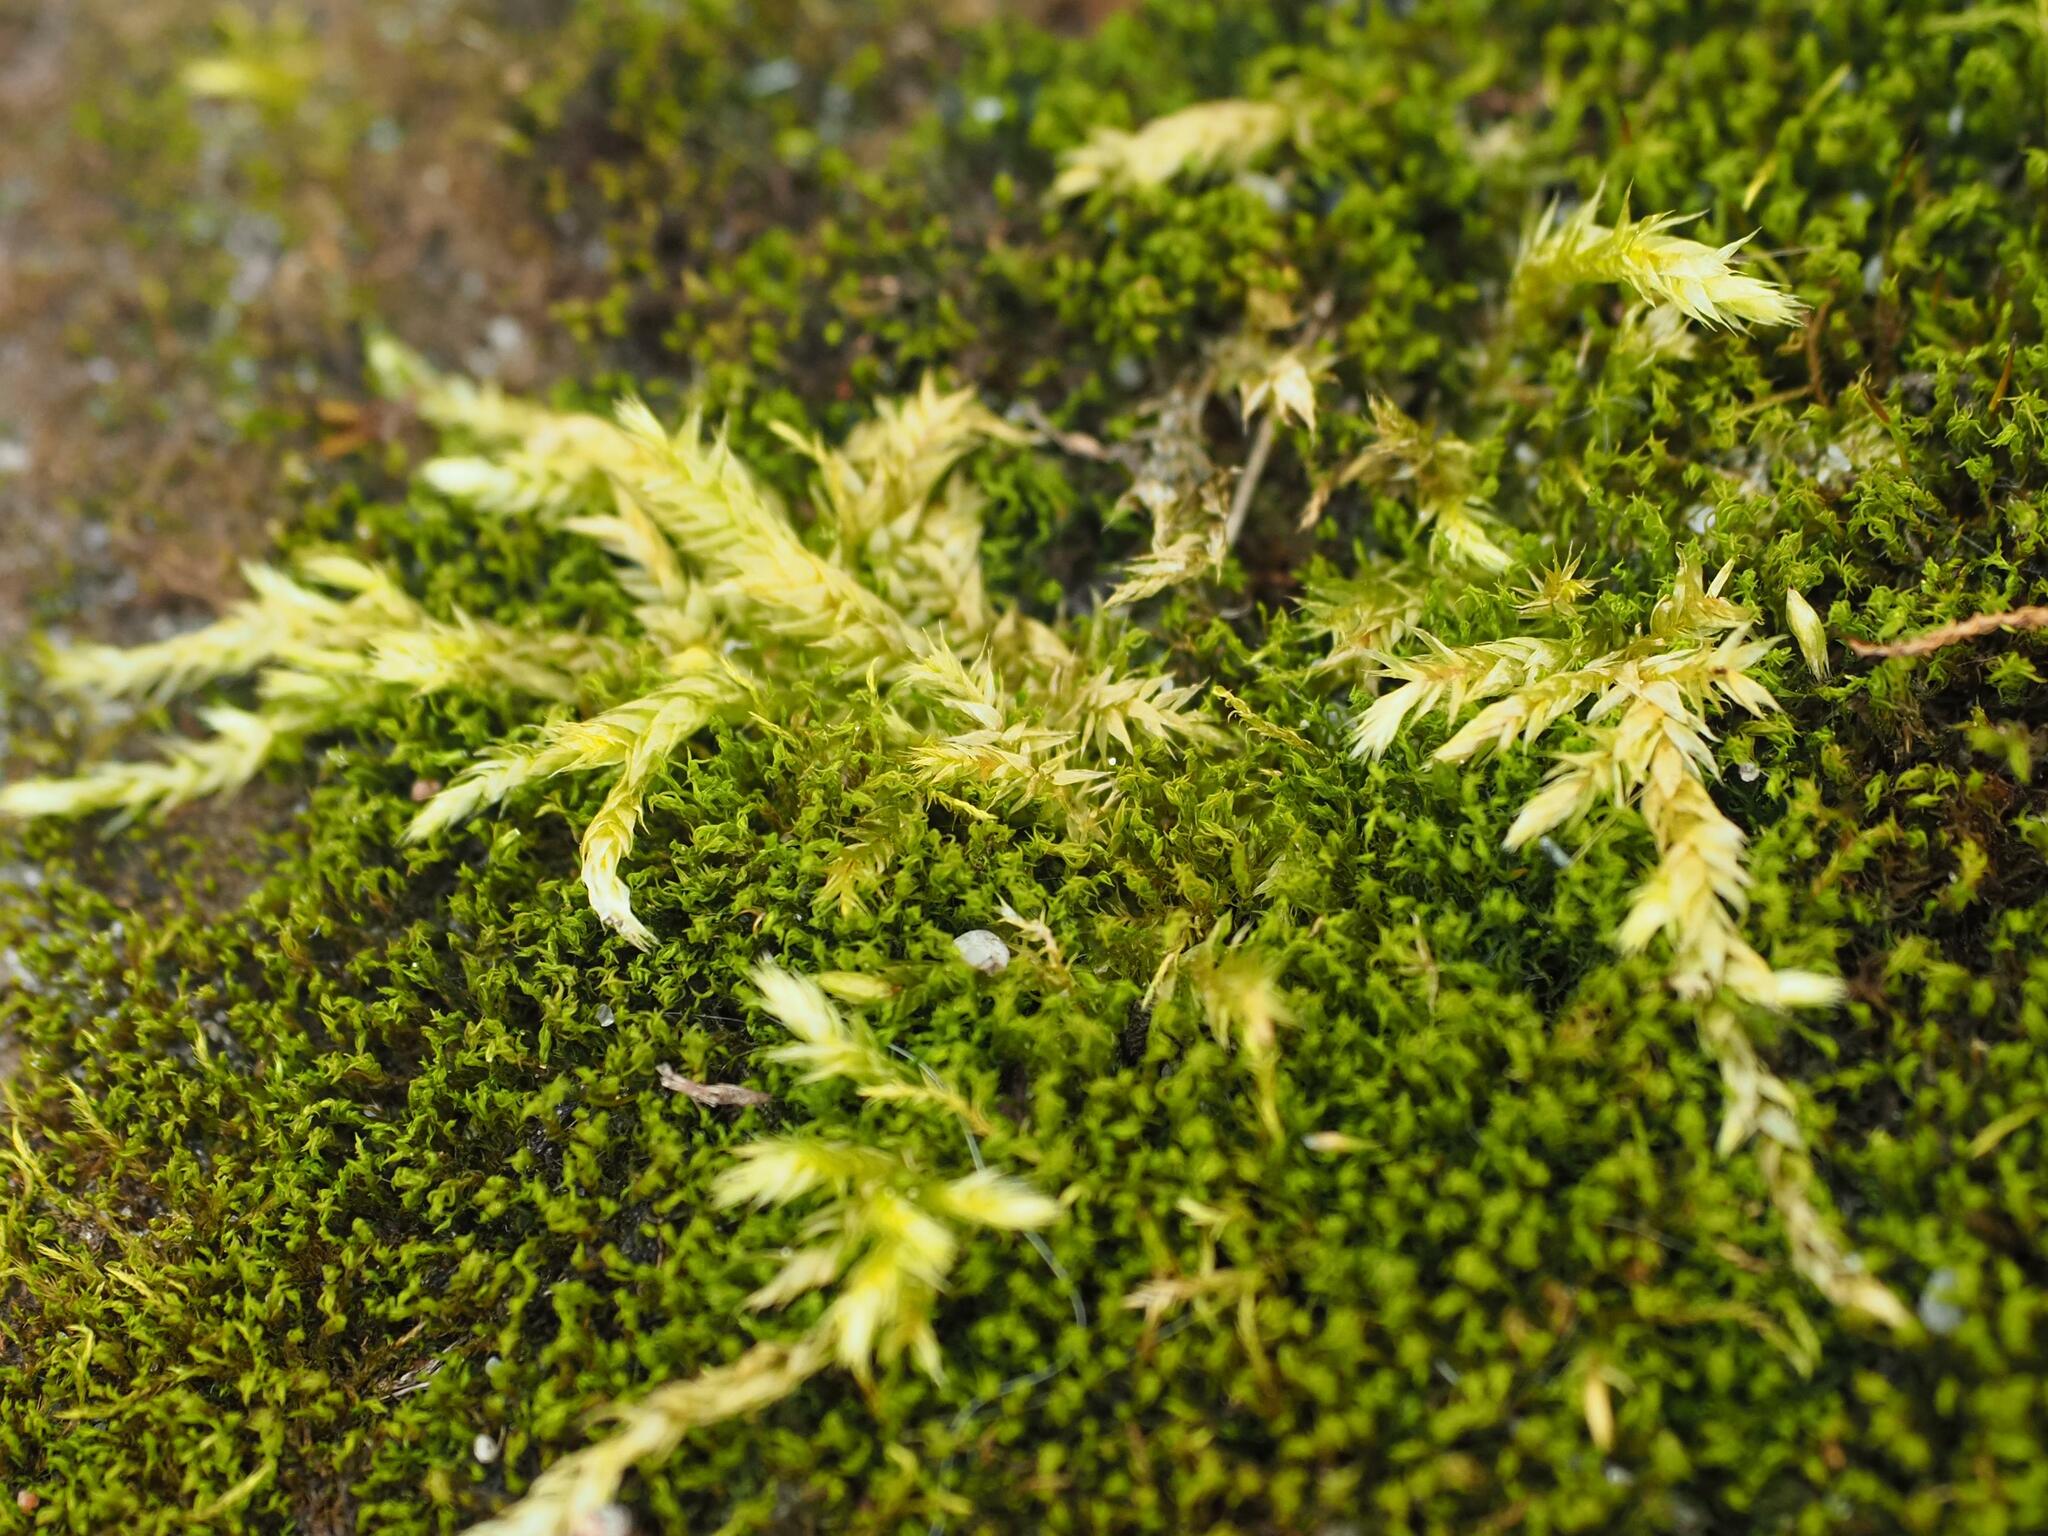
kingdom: Plantae
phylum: Bryophyta
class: Bryopsida
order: Hypnales
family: Brachytheciaceae
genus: Brachythecium
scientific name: Brachythecium rutabulum
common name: Rough-stalked feather-moss
